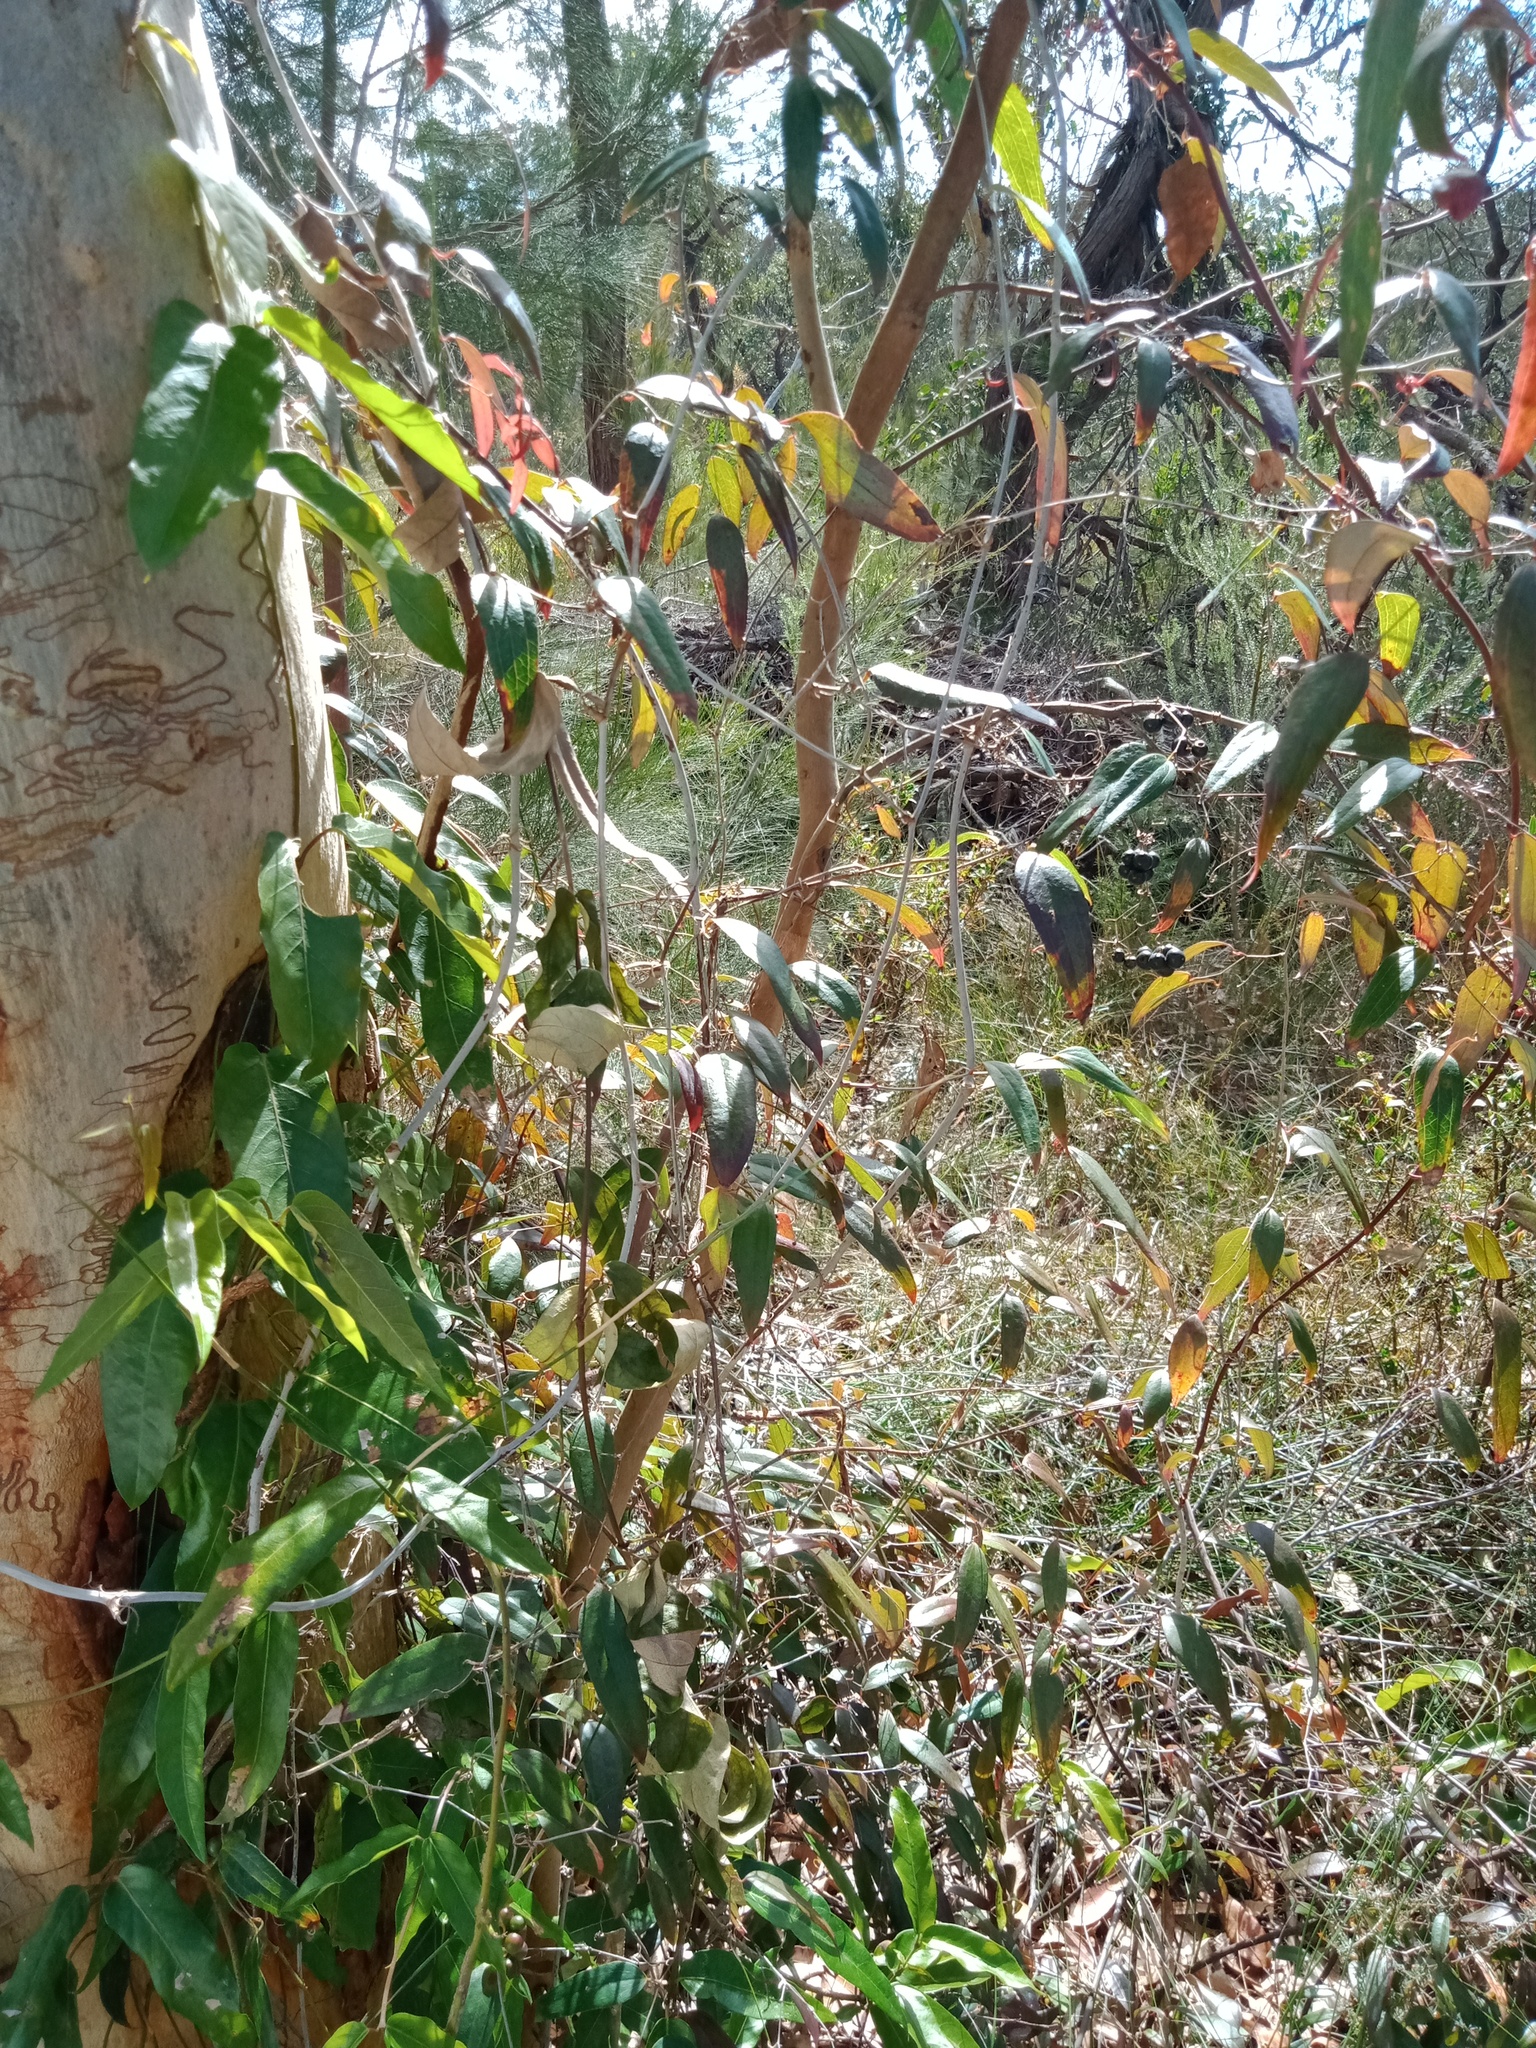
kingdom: Plantae
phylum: Tracheophyta
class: Liliopsida
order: Liliales
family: Smilacaceae
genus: Smilax
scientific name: Smilax glyciphylla
